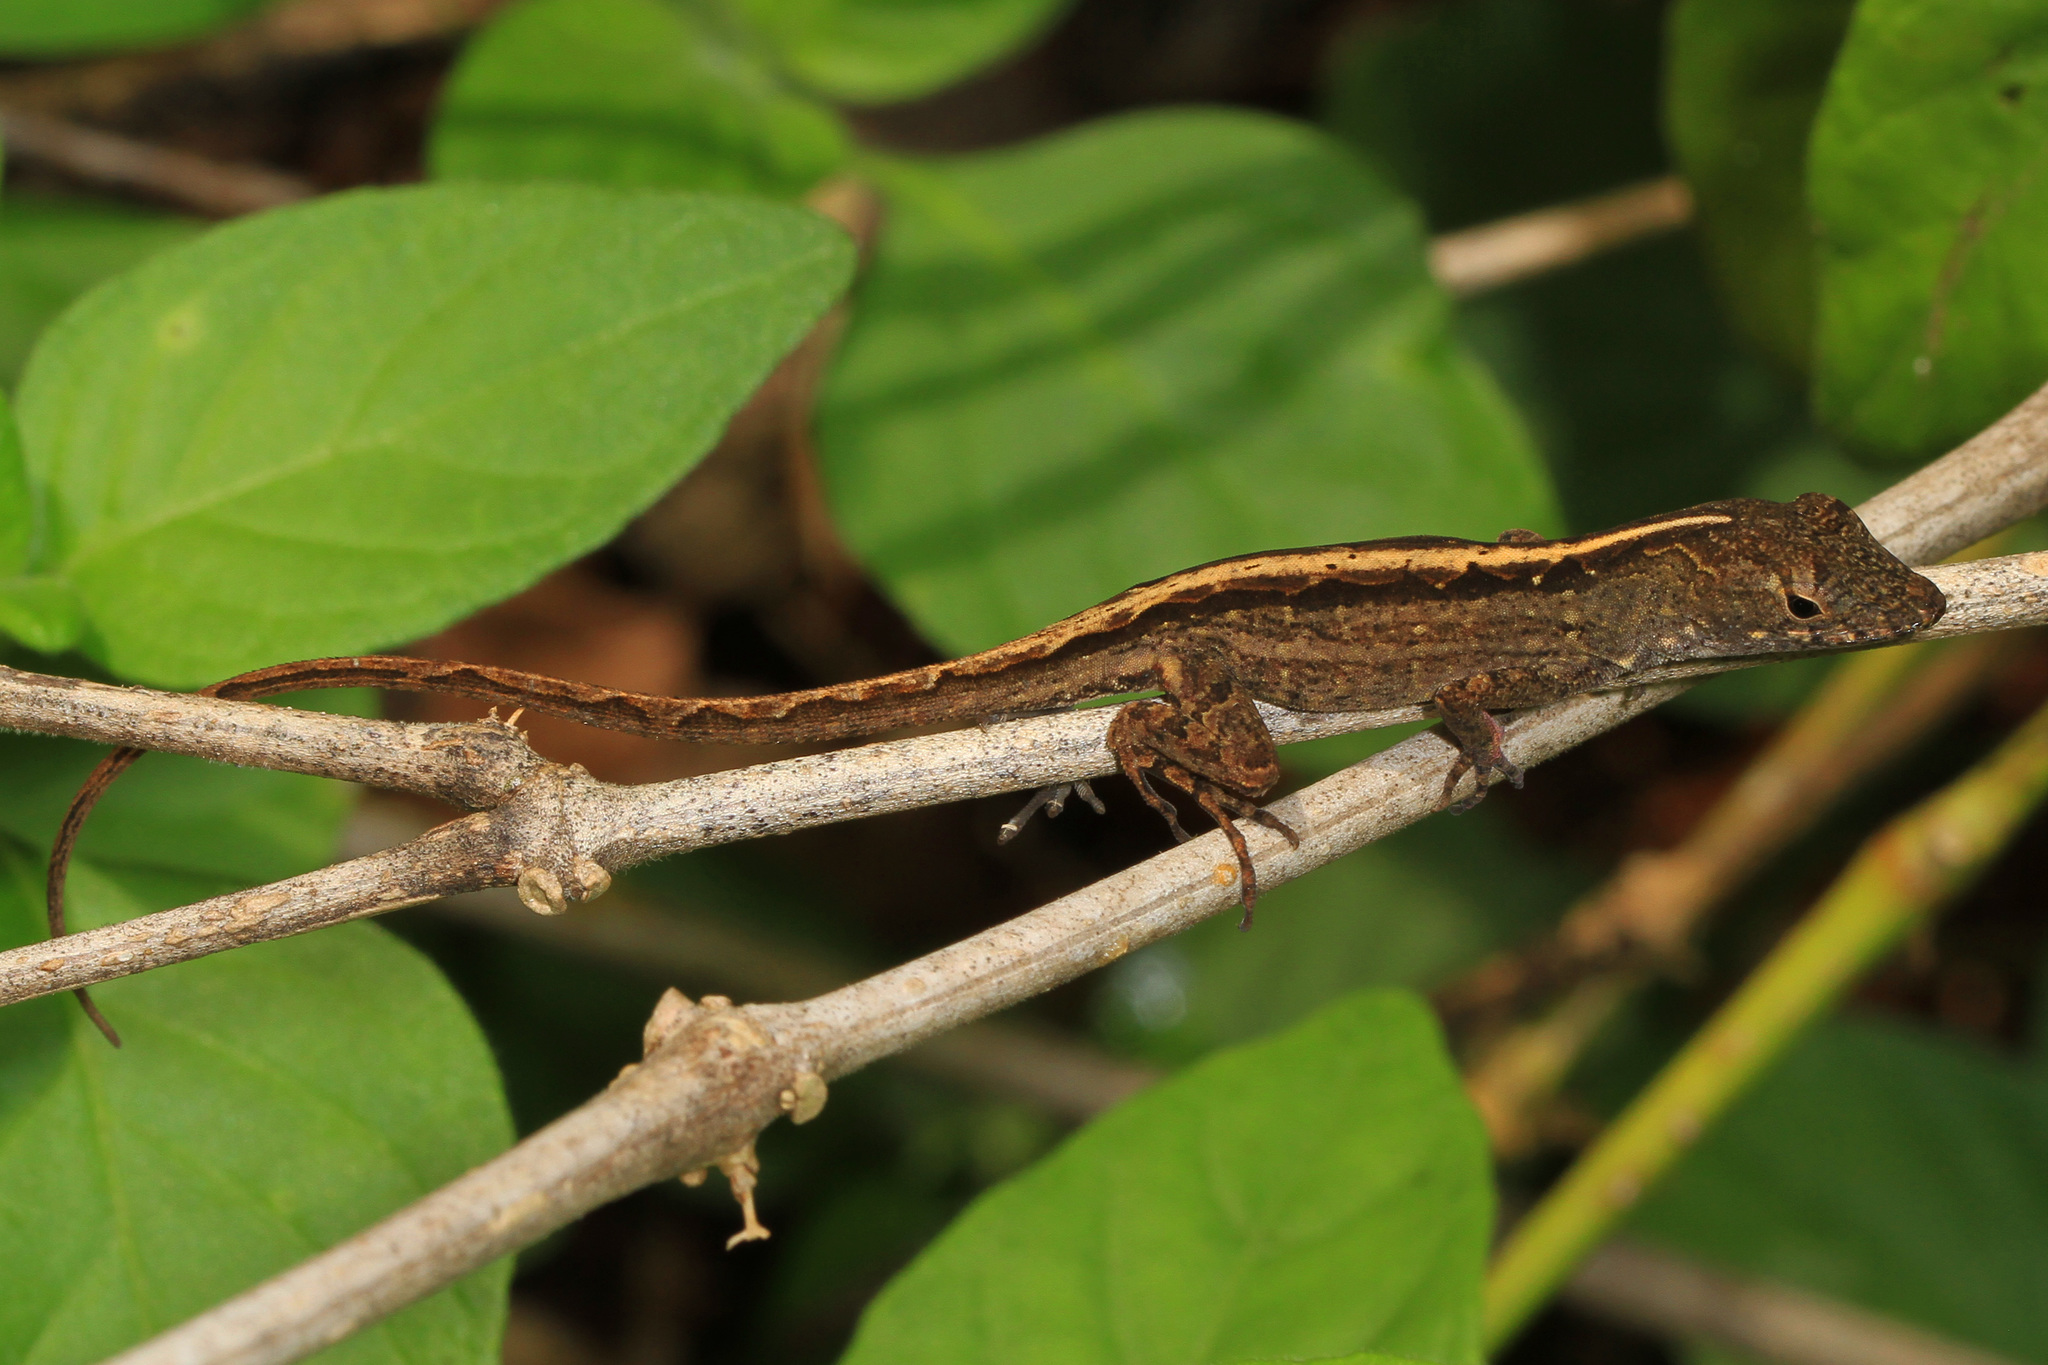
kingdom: Animalia
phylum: Chordata
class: Squamata
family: Dactyloidae
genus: Anolis
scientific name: Anolis sagrei
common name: Brown anole
